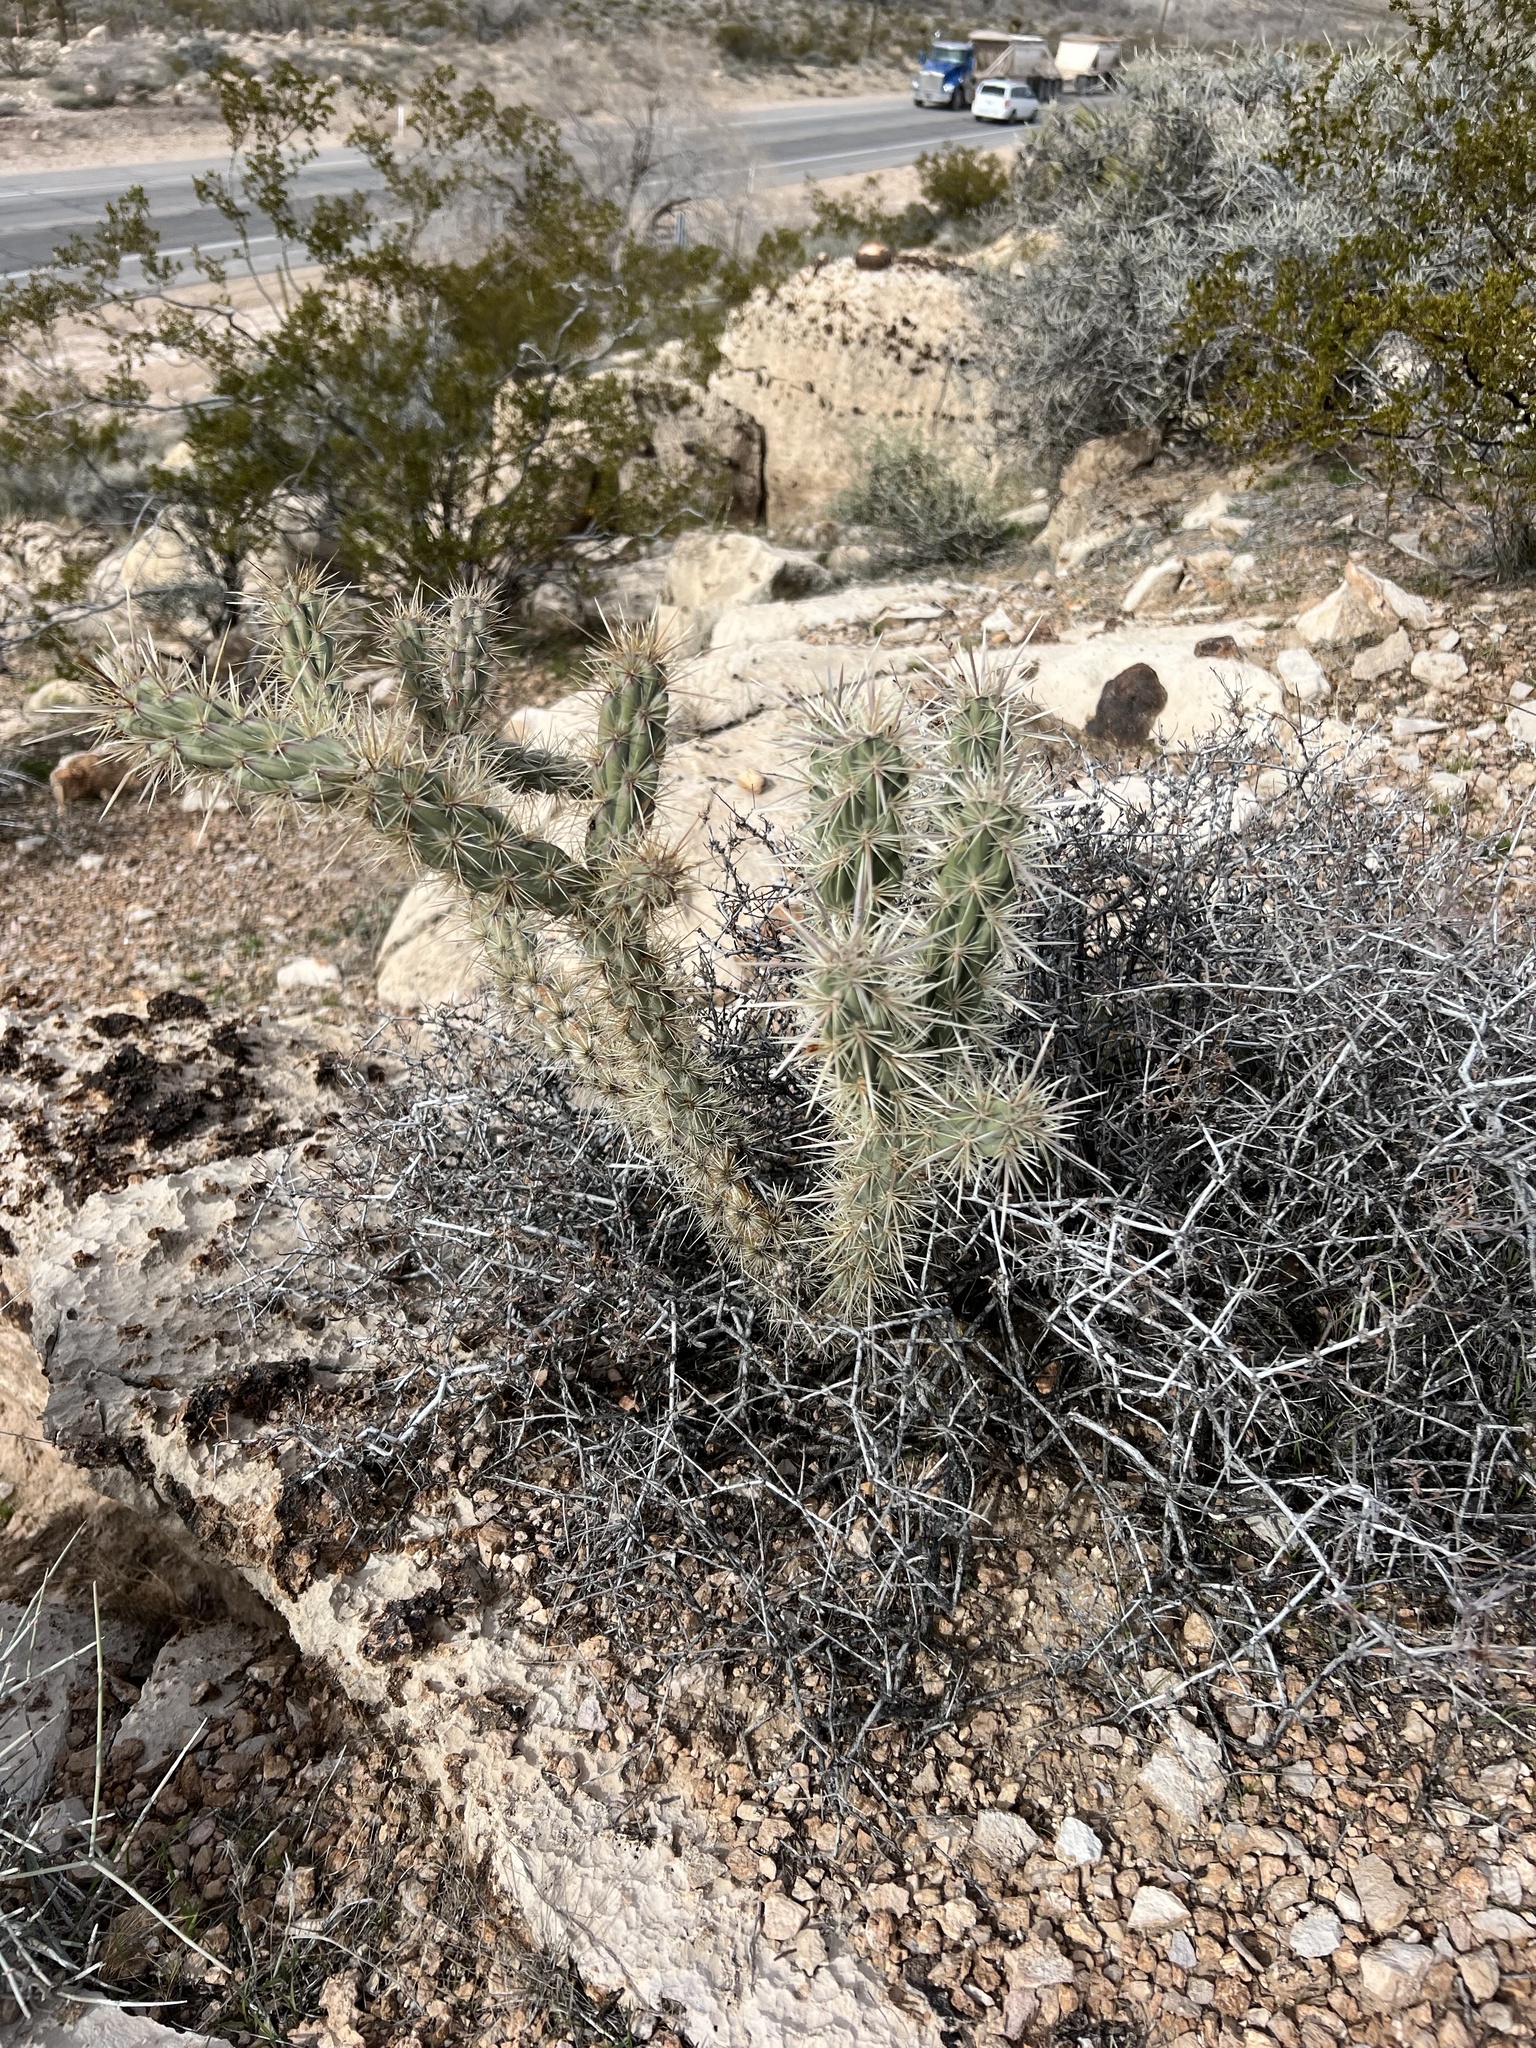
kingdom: Plantae
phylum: Tracheophyta
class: Magnoliopsida
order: Caryophyllales
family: Cactaceae
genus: Cylindropuntia
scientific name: Cylindropuntia acanthocarpa
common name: Buckhorn cholla
